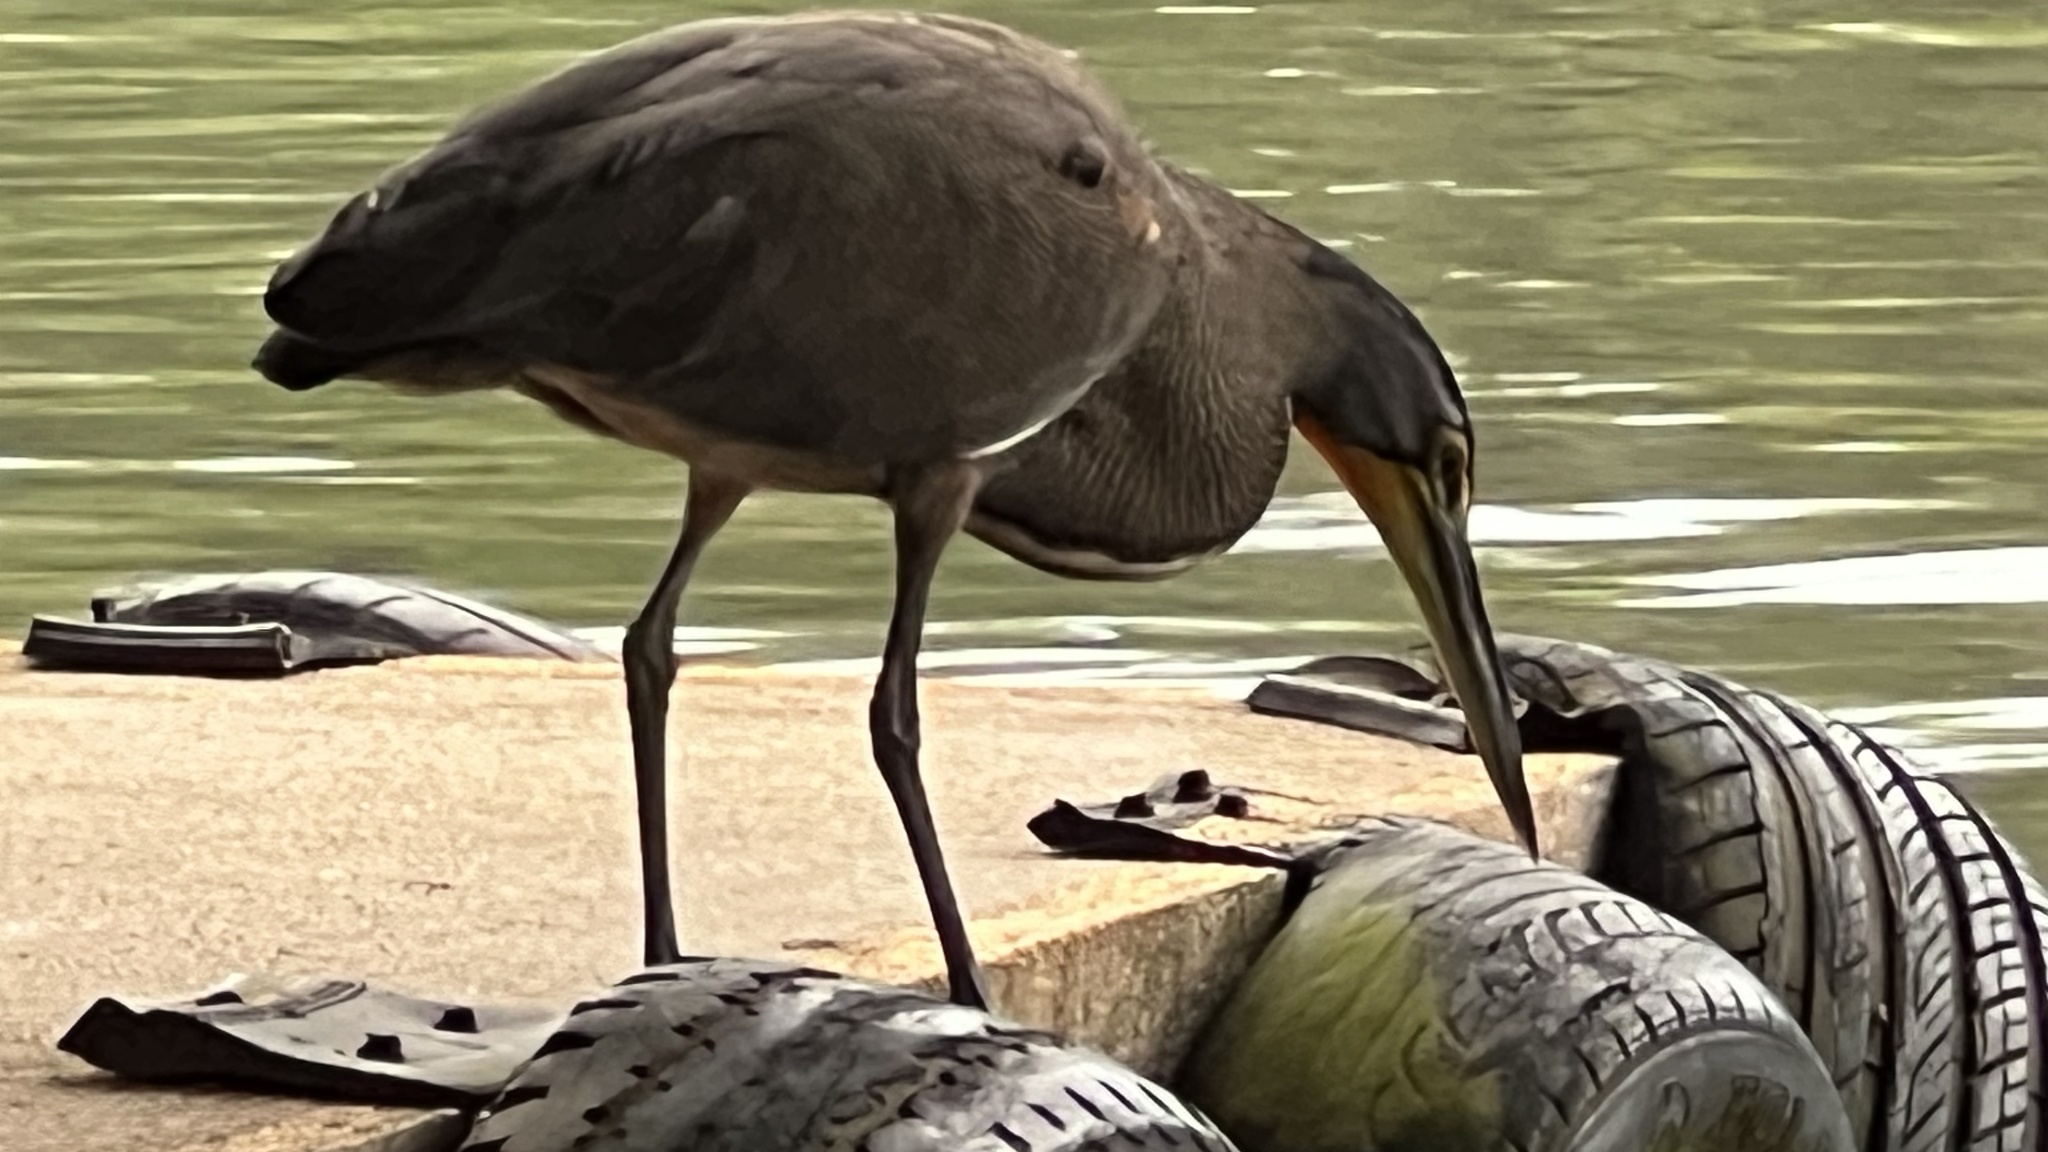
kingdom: Animalia
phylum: Chordata
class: Aves
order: Pelecaniformes
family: Ardeidae
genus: Tigrisoma
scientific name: Tigrisoma mexicanum
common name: Bare-throated tiger-heron
